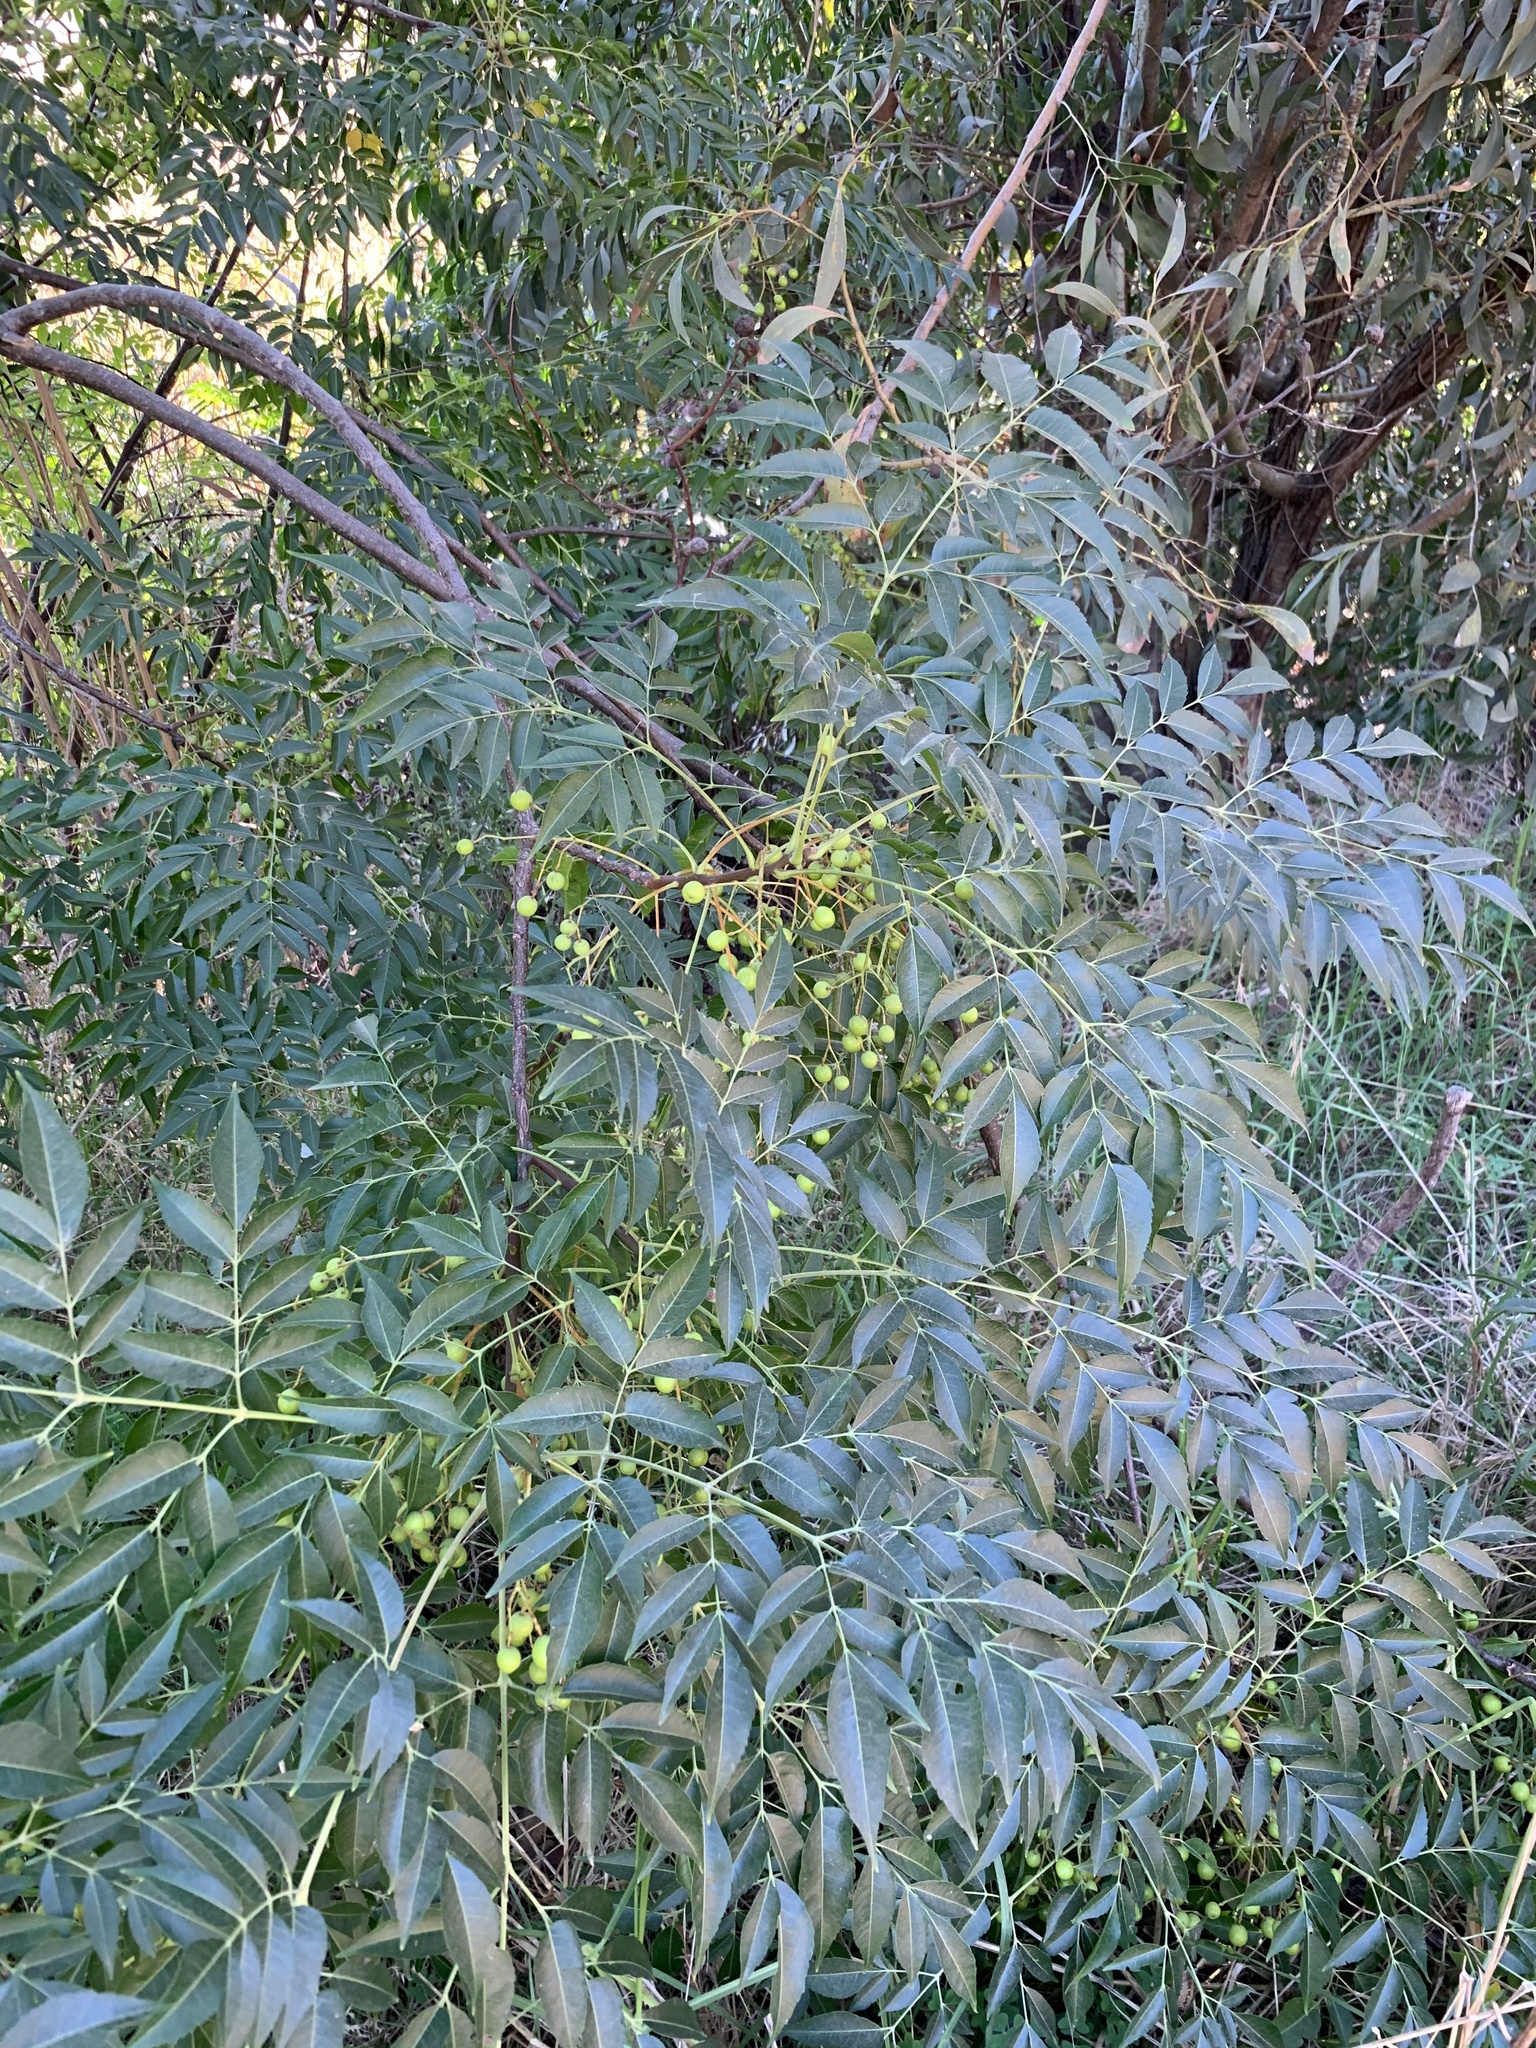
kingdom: Plantae
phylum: Tracheophyta
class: Magnoliopsida
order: Sapindales
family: Meliaceae
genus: Melia
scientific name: Melia azedarach
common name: Chinaberrytree
